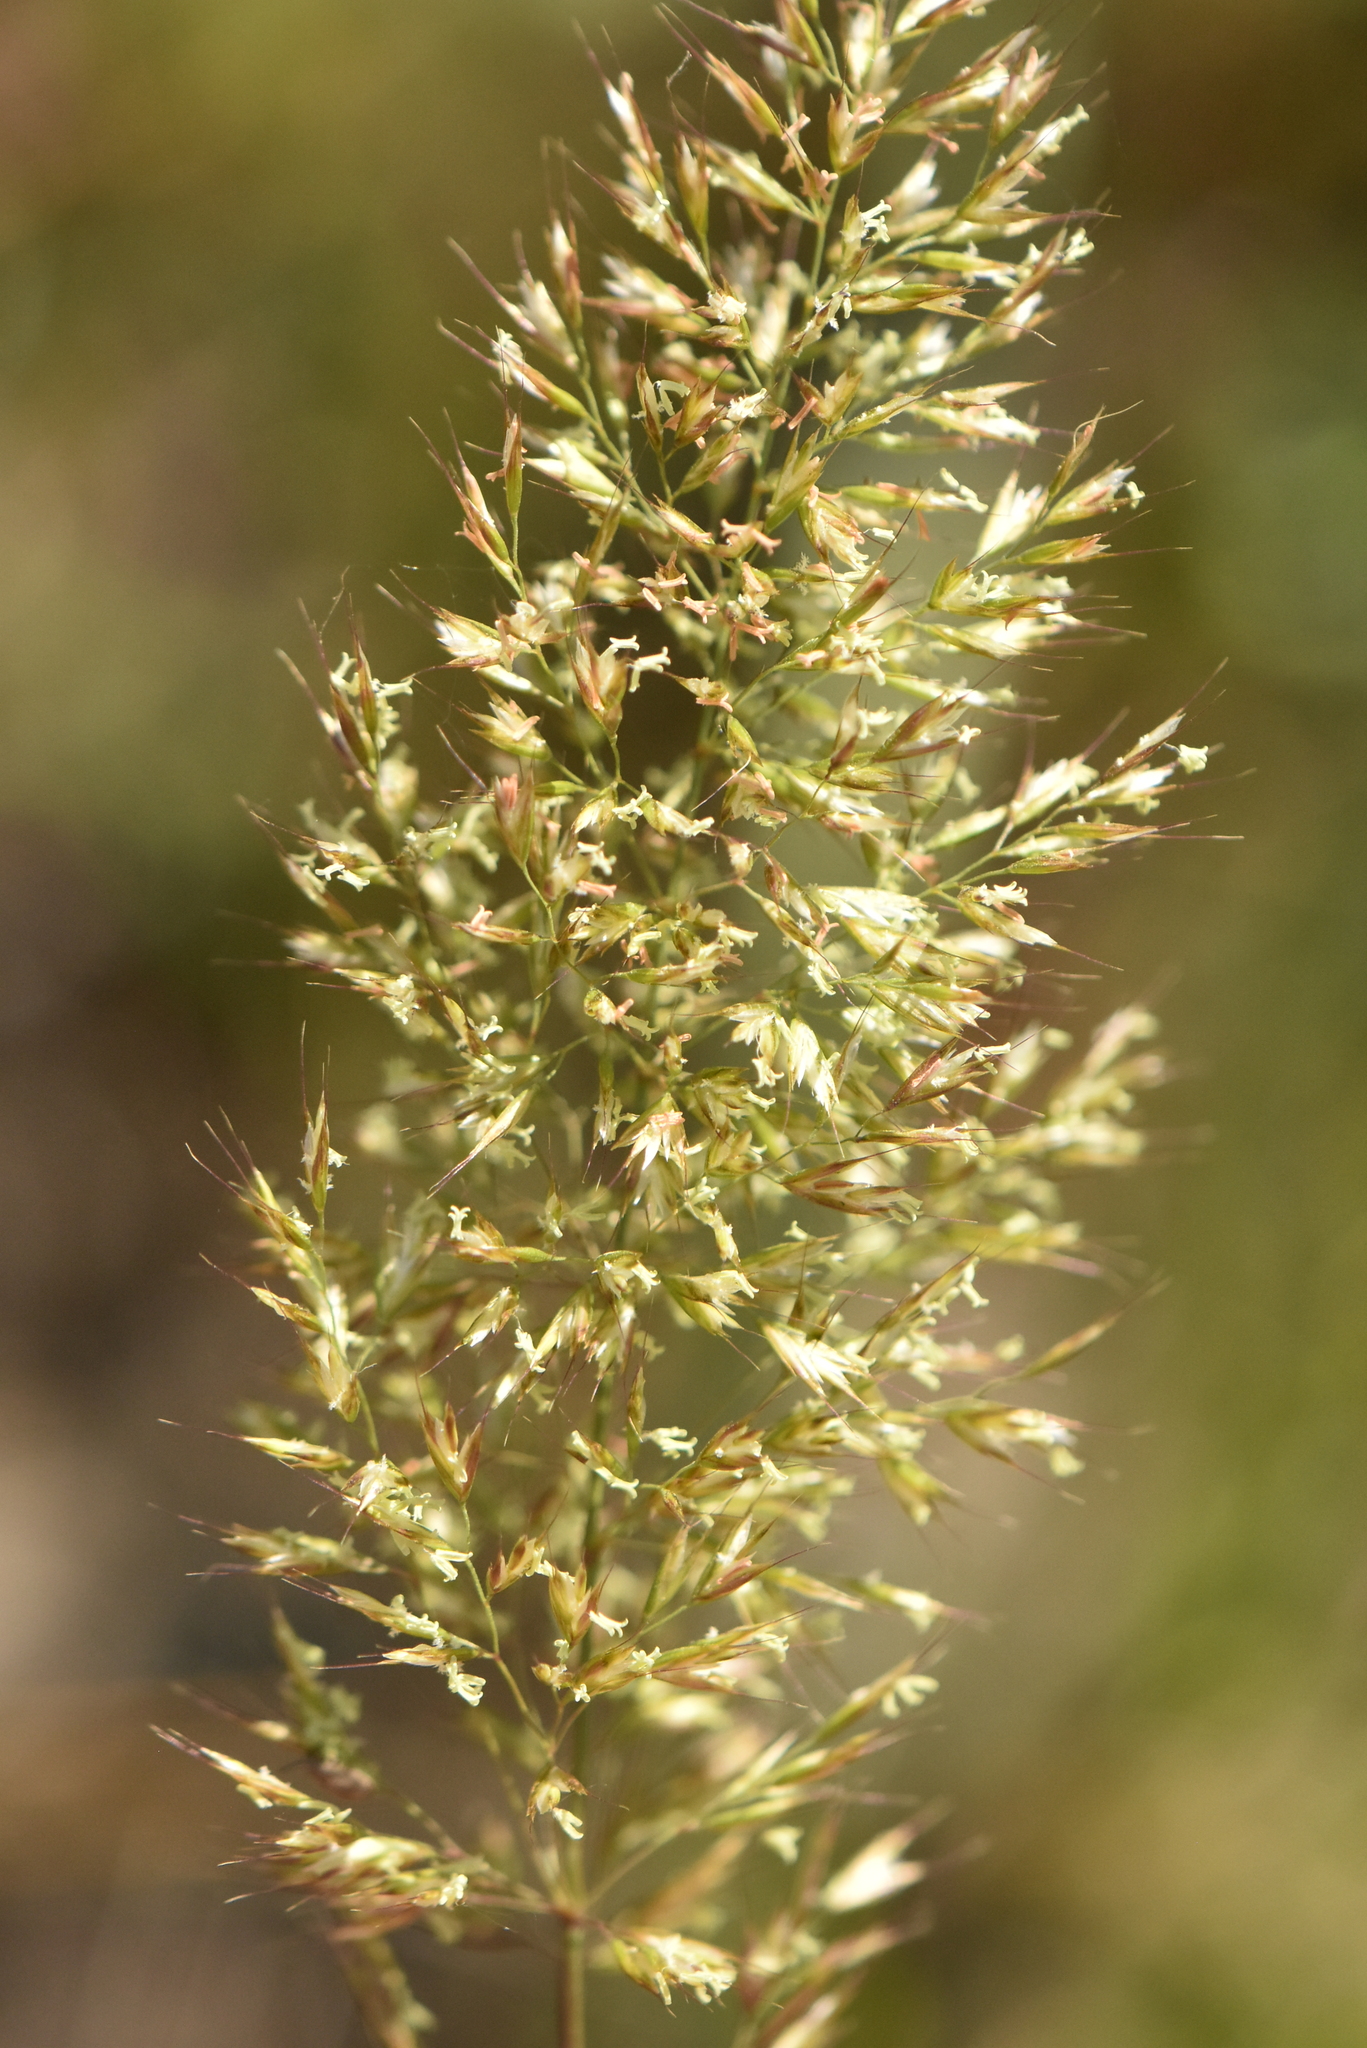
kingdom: Plantae
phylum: Tracheophyta
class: Liliopsida
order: Poales
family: Poaceae
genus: Trisetum
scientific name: Trisetum flavescens
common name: Yellow oat-grass
